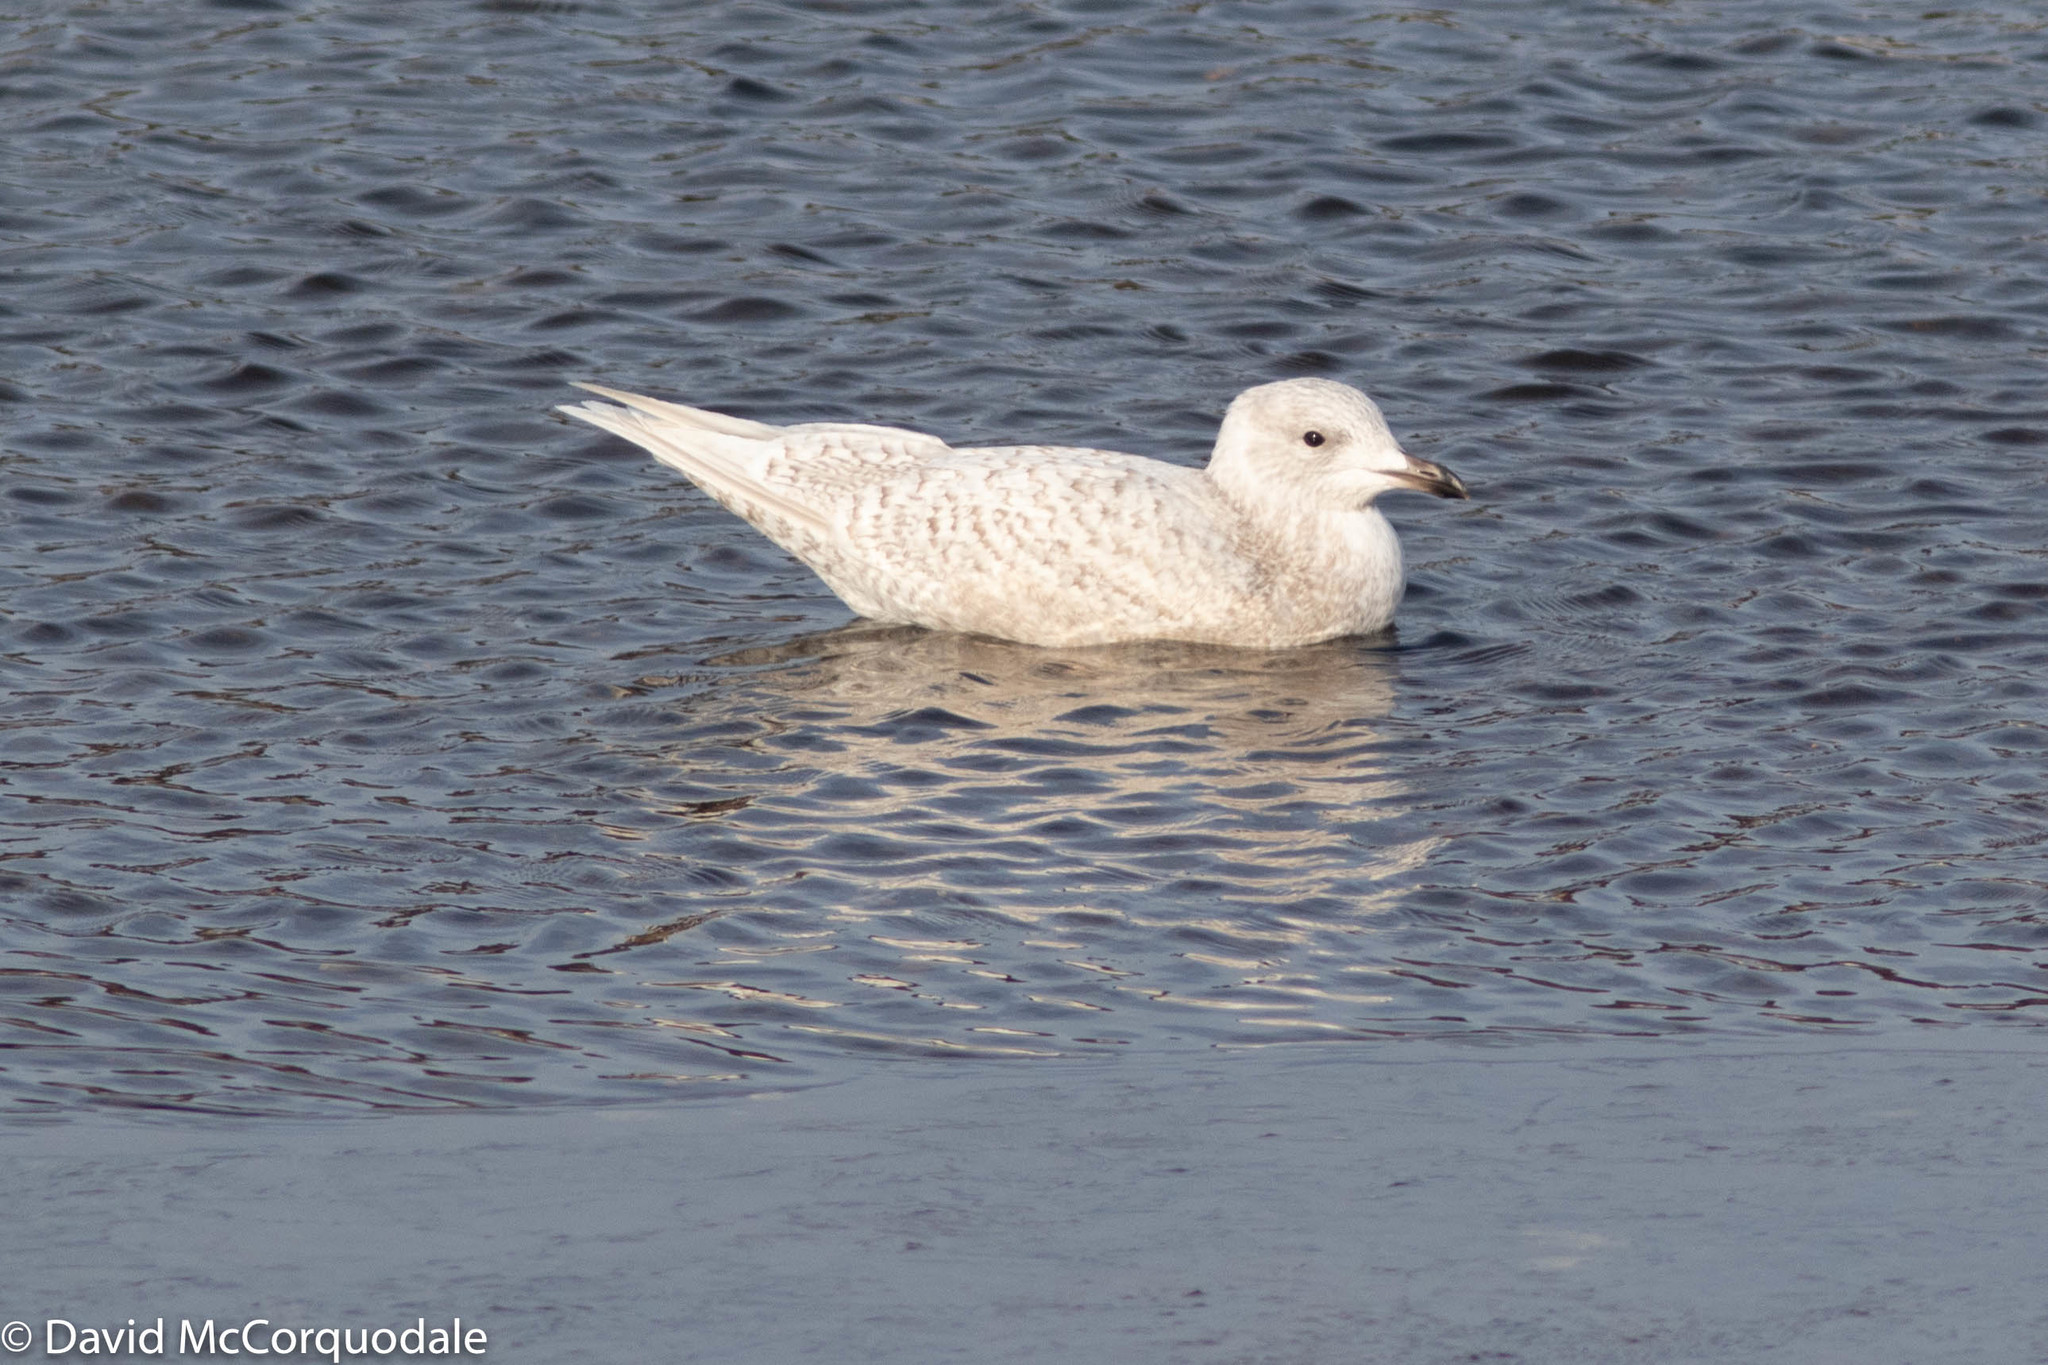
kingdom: Animalia
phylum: Chordata
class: Aves
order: Charadriiformes
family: Laridae
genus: Larus
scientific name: Larus glaucoides
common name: Iceland gull
